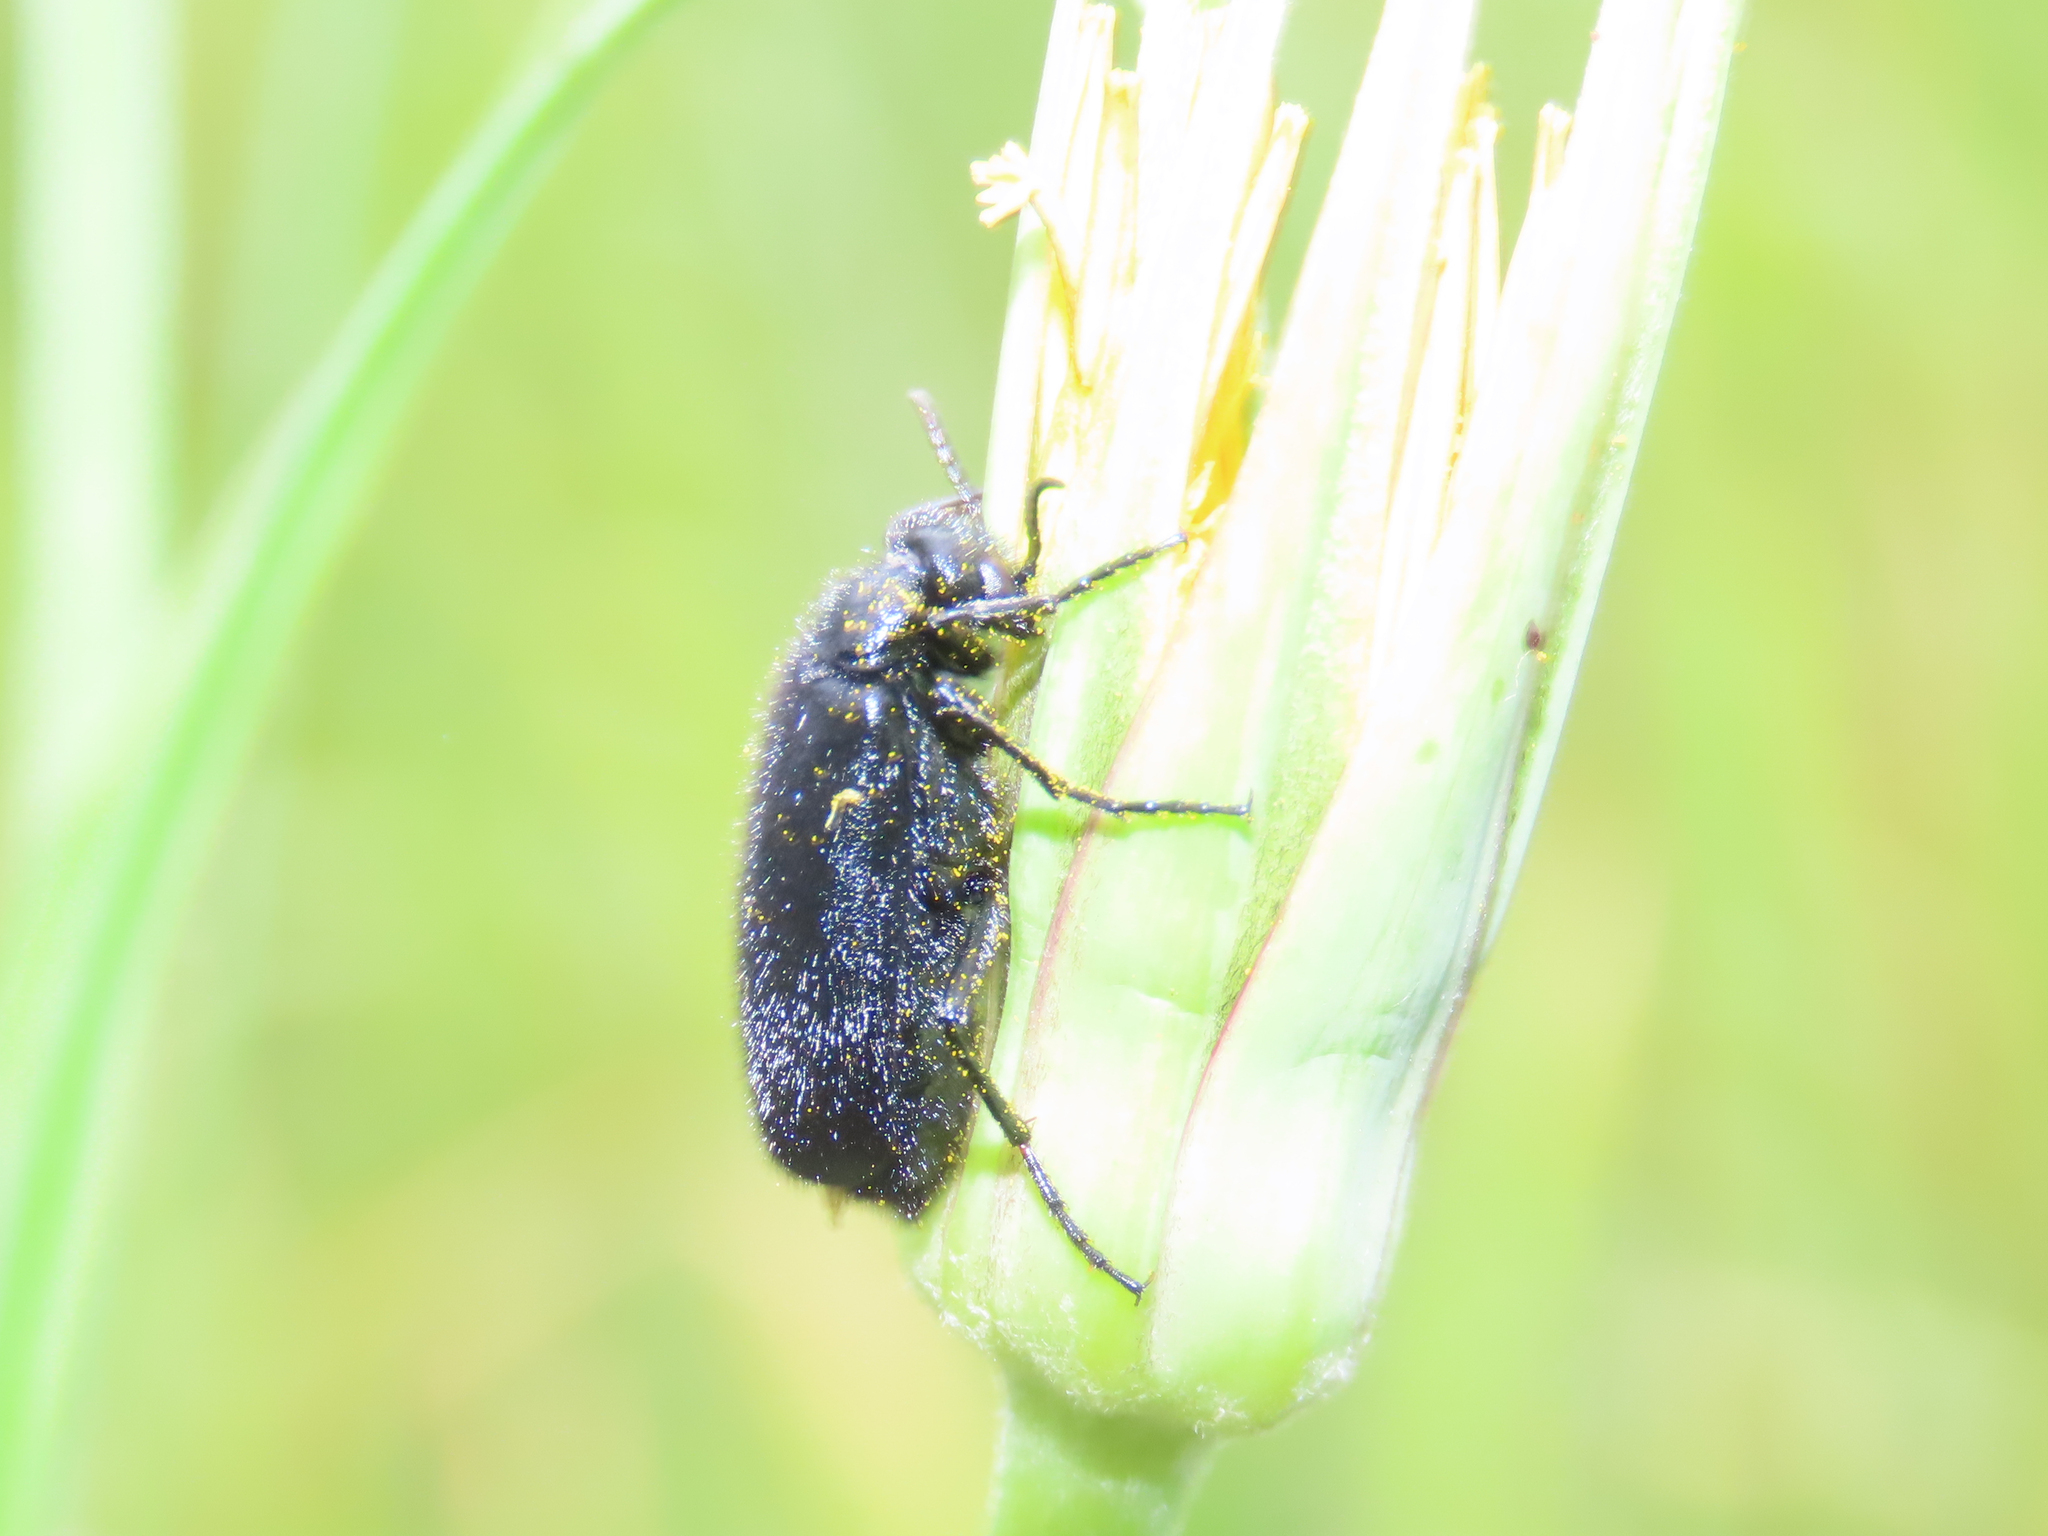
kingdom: Animalia
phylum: Arthropoda
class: Insecta
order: Coleoptera
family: Meloidae
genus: Epicauta
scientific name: Epicauta puncticollis
